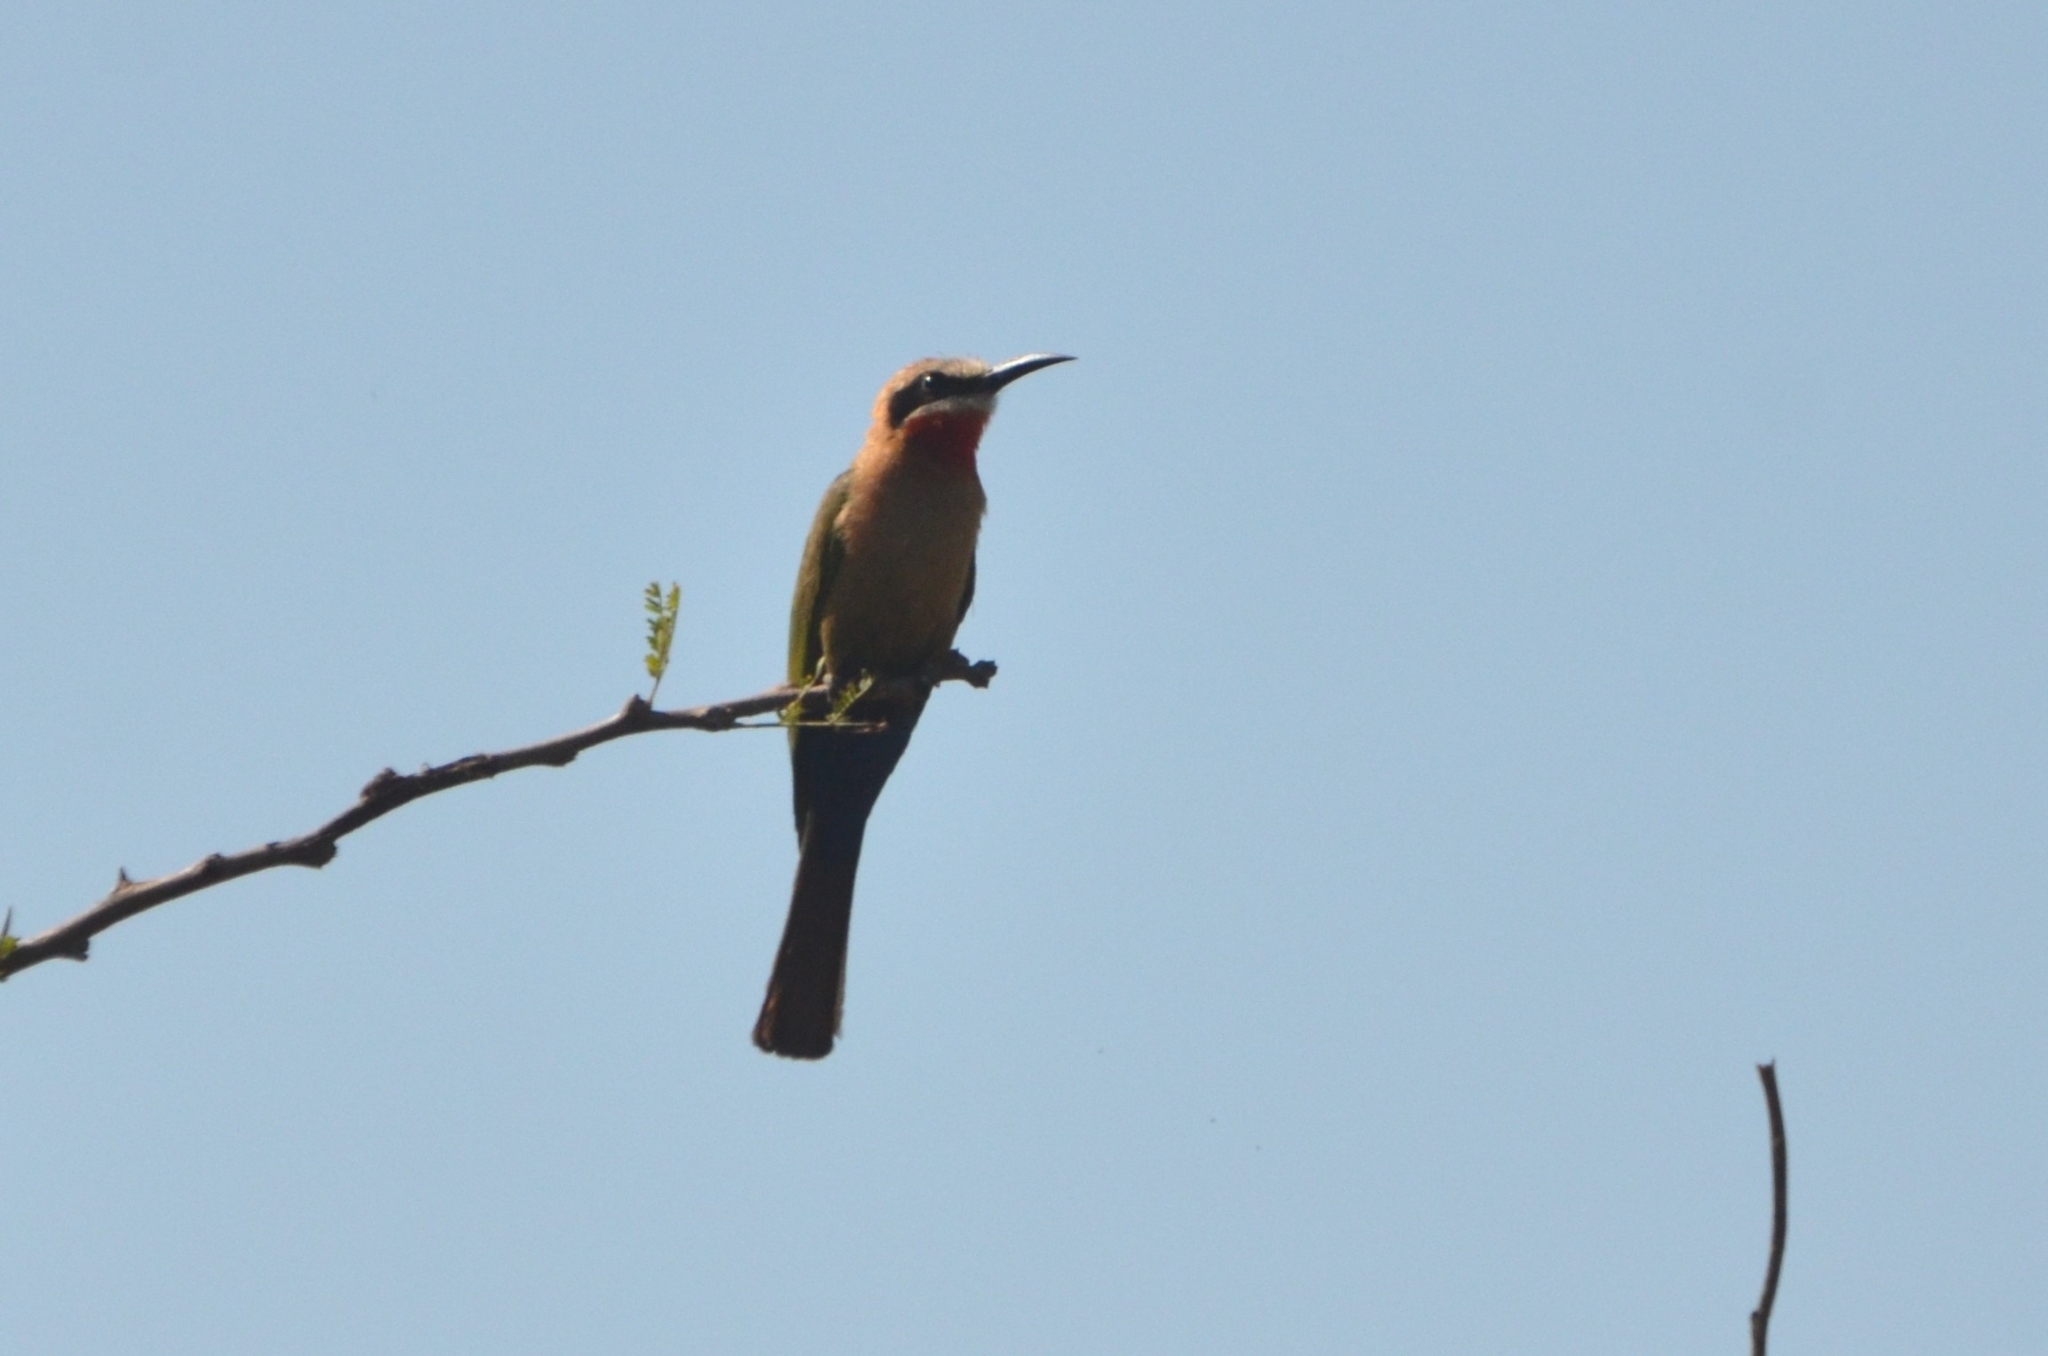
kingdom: Animalia
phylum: Chordata
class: Aves
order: Coraciiformes
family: Meropidae
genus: Merops
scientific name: Merops bullockoides
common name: White-fronted bee-eater
